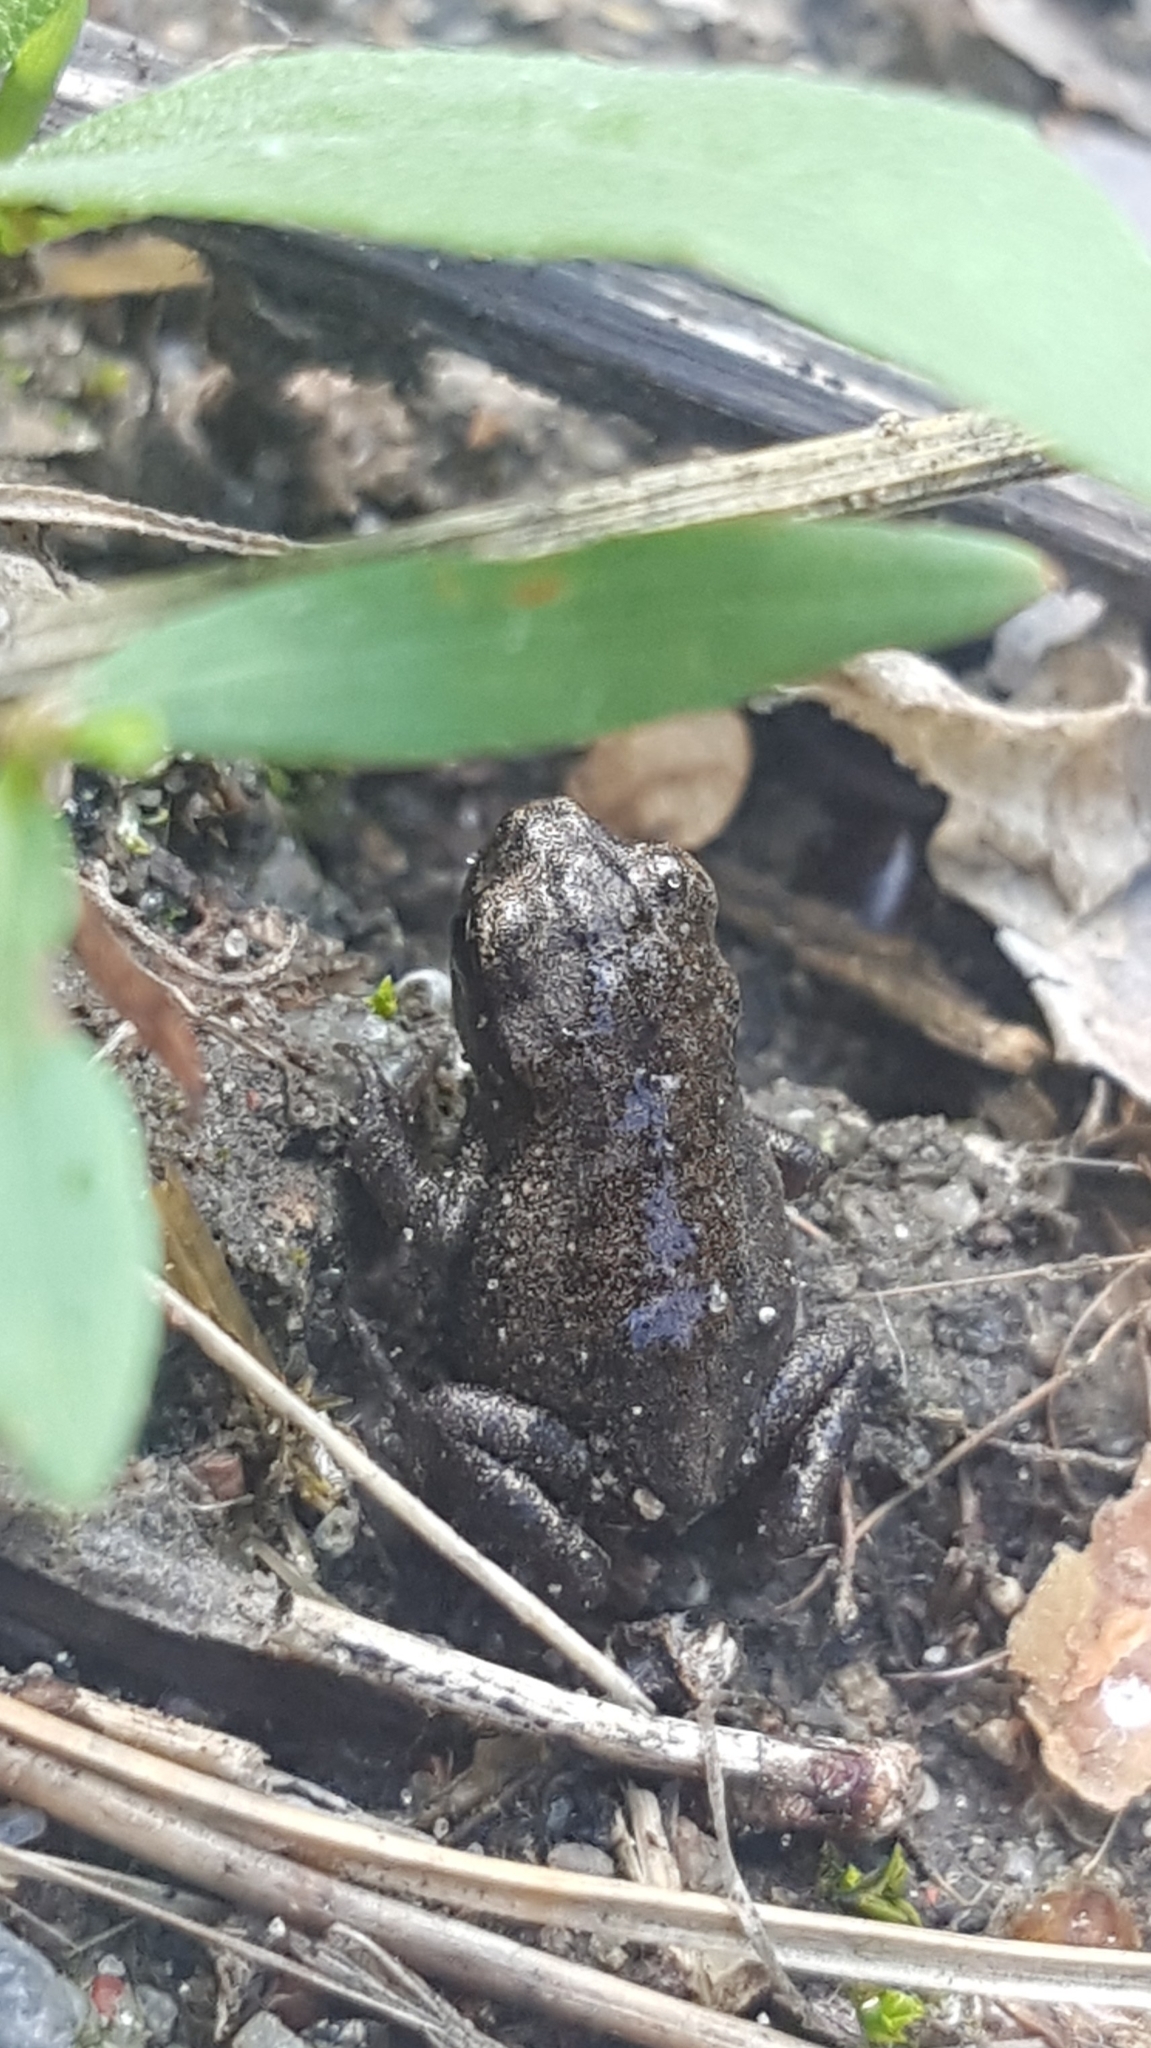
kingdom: Animalia
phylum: Chordata
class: Amphibia
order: Anura
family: Bufonidae
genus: Bufo
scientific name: Bufo bufo
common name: Common toad
